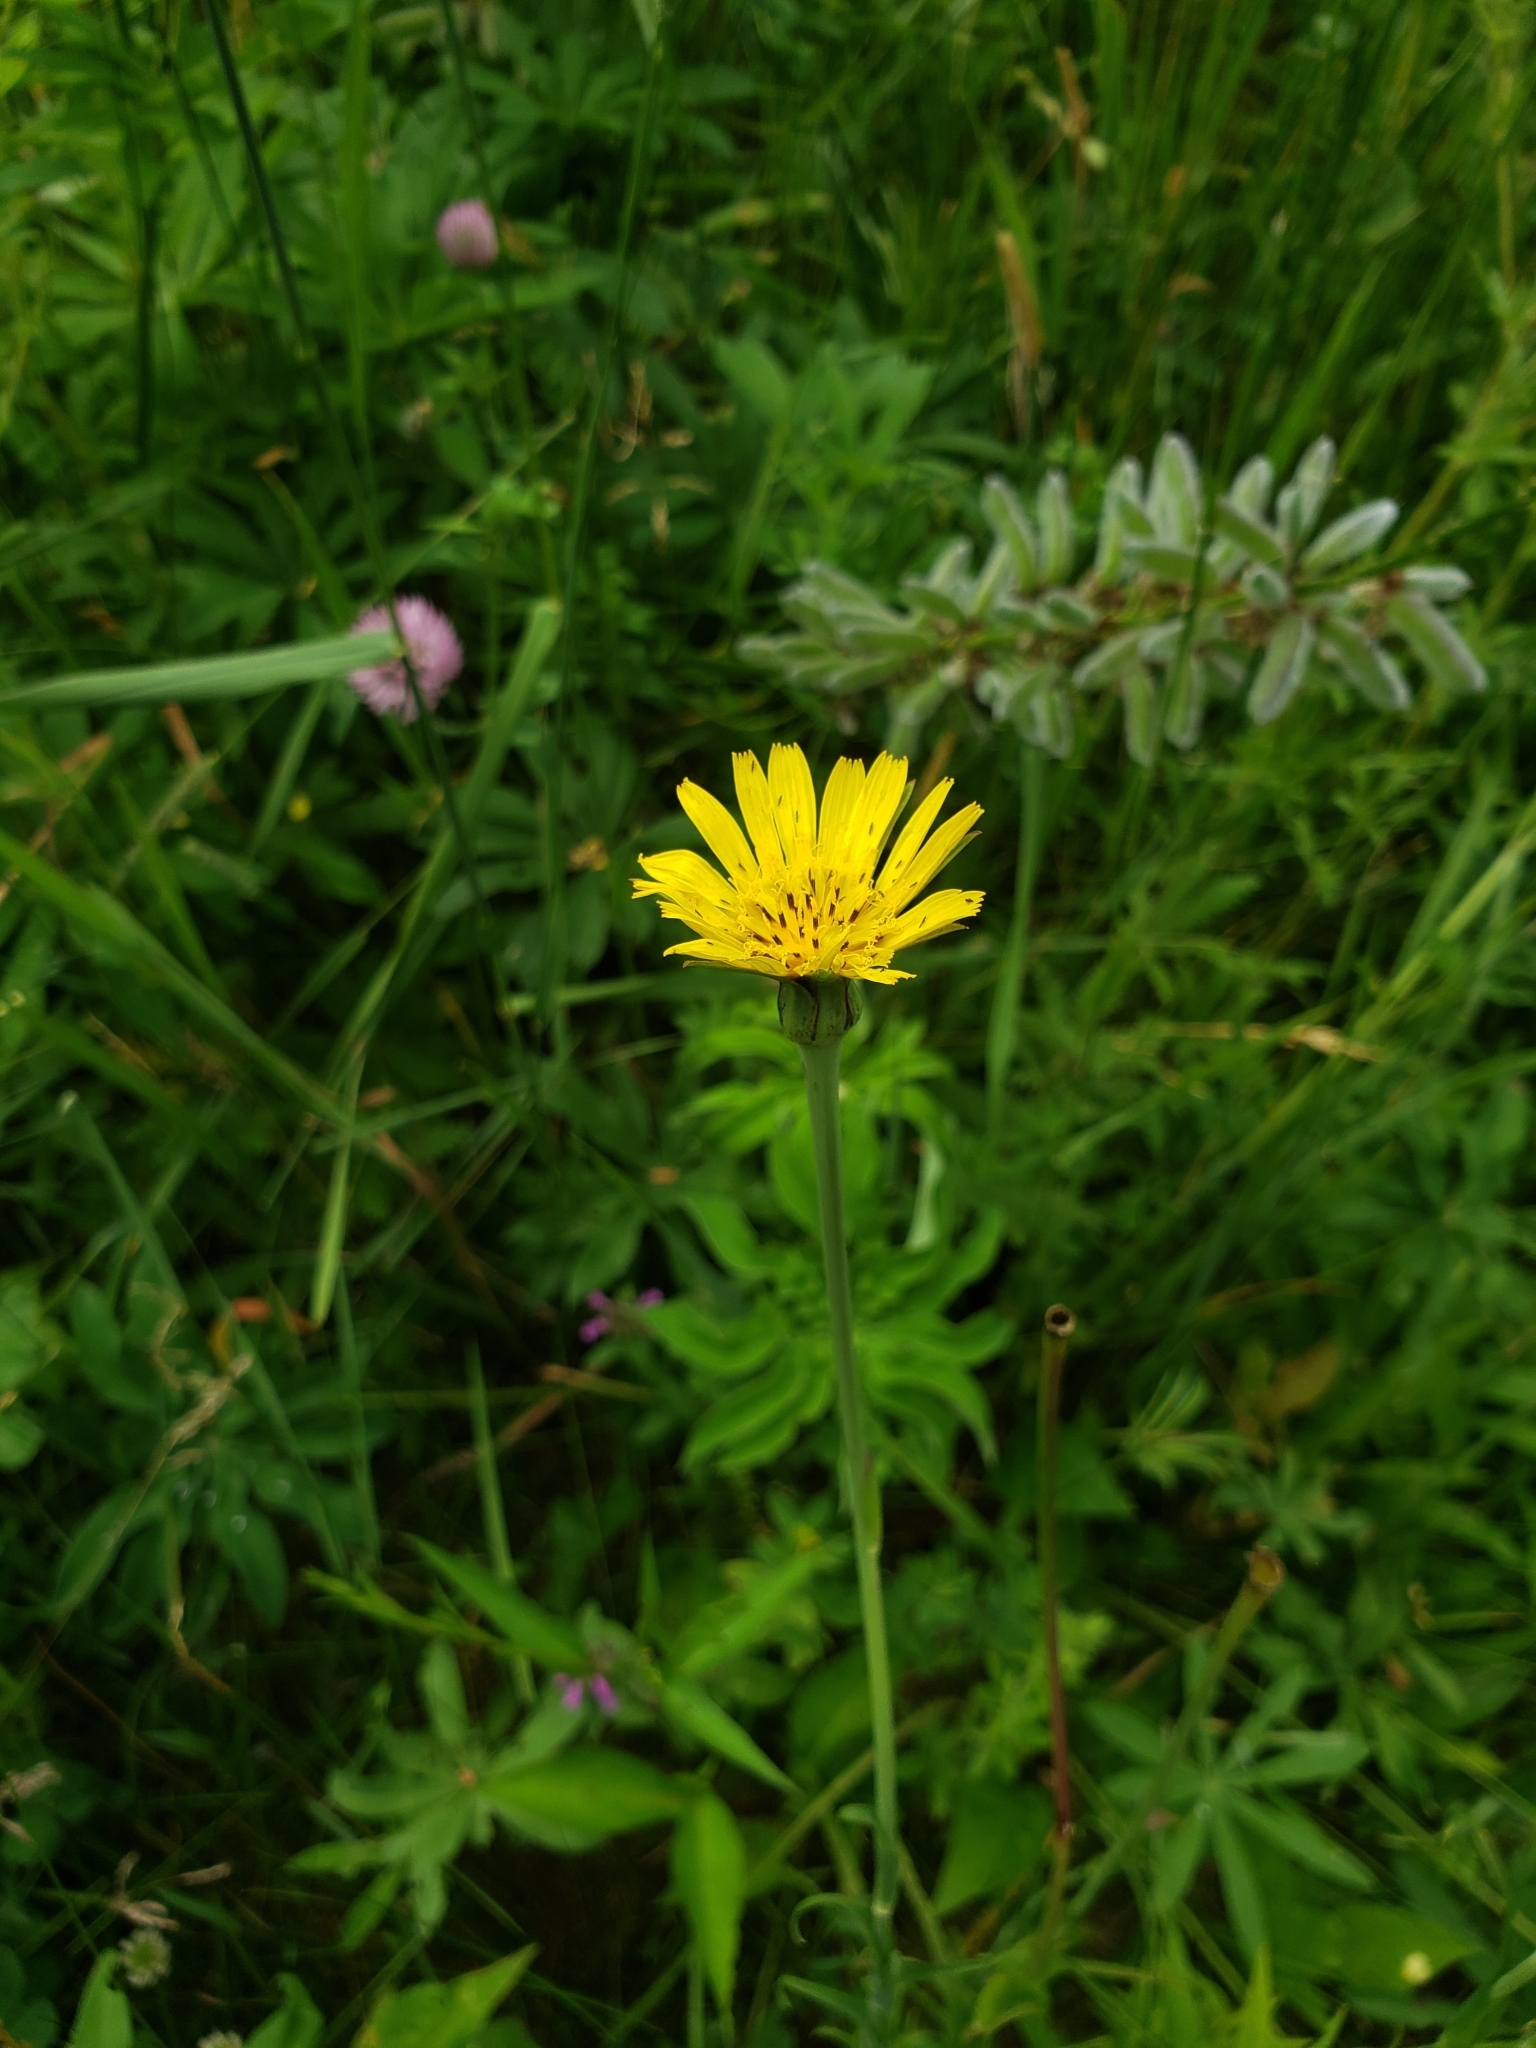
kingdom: Plantae
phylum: Tracheophyta
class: Magnoliopsida
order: Asterales
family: Asteraceae
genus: Tragopogon
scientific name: Tragopogon pratensis
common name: Goat's-beard
